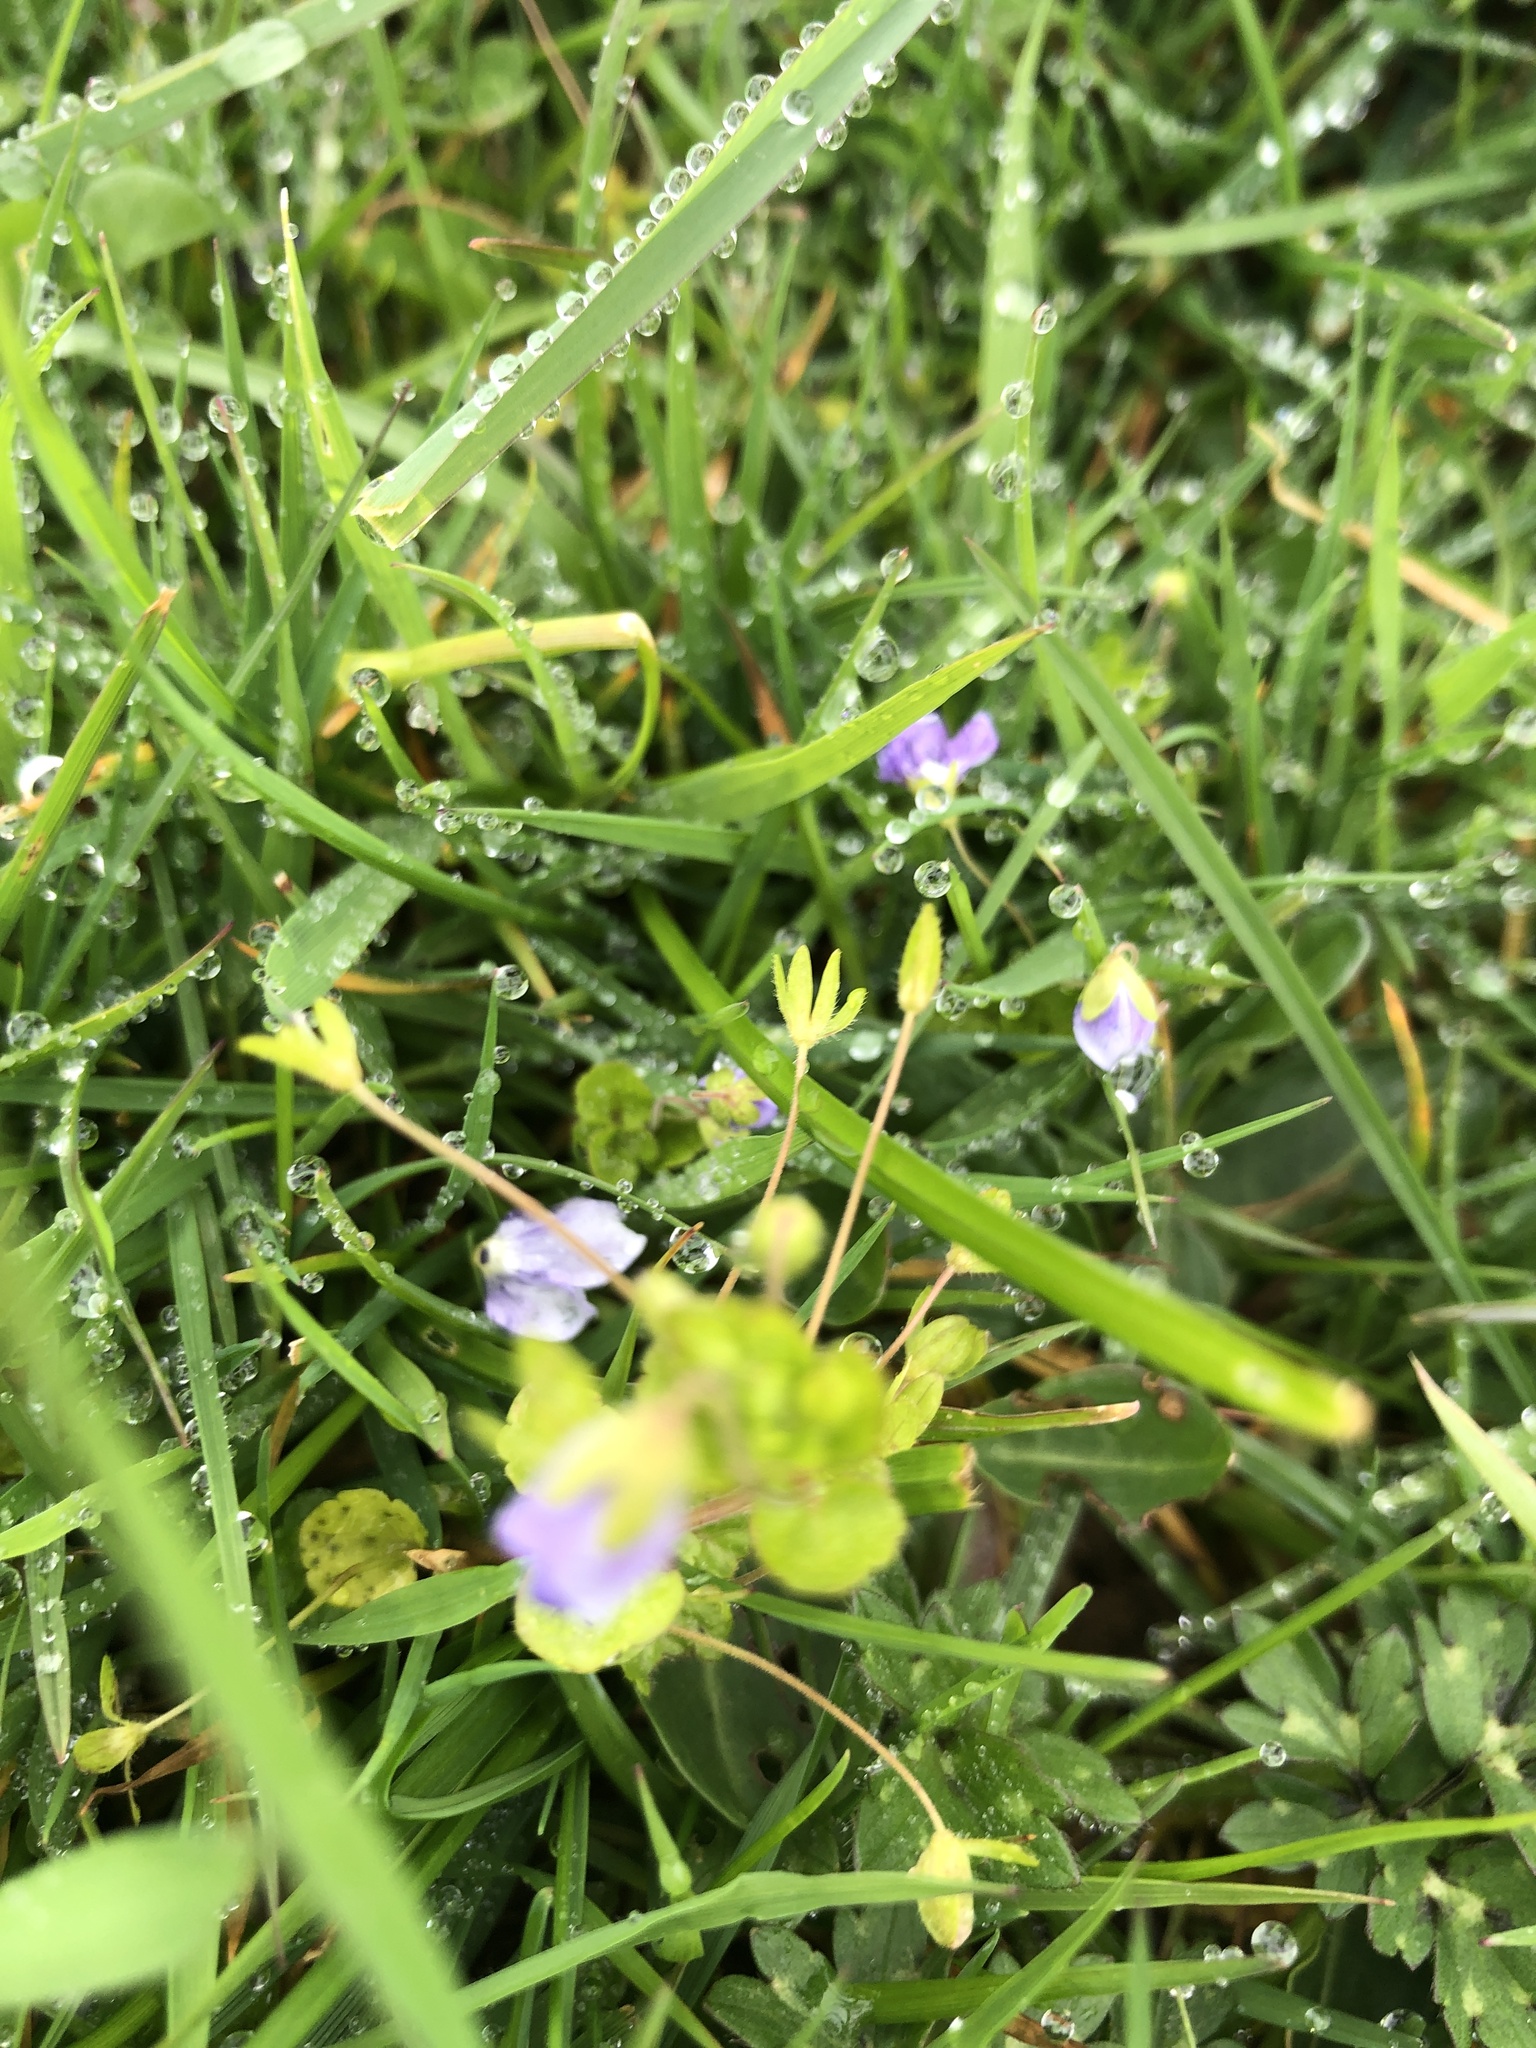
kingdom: Plantae
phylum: Tracheophyta
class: Magnoliopsida
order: Lamiales
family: Plantaginaceae
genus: Veronica
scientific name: Veronica filiformis
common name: Slender speedwell
